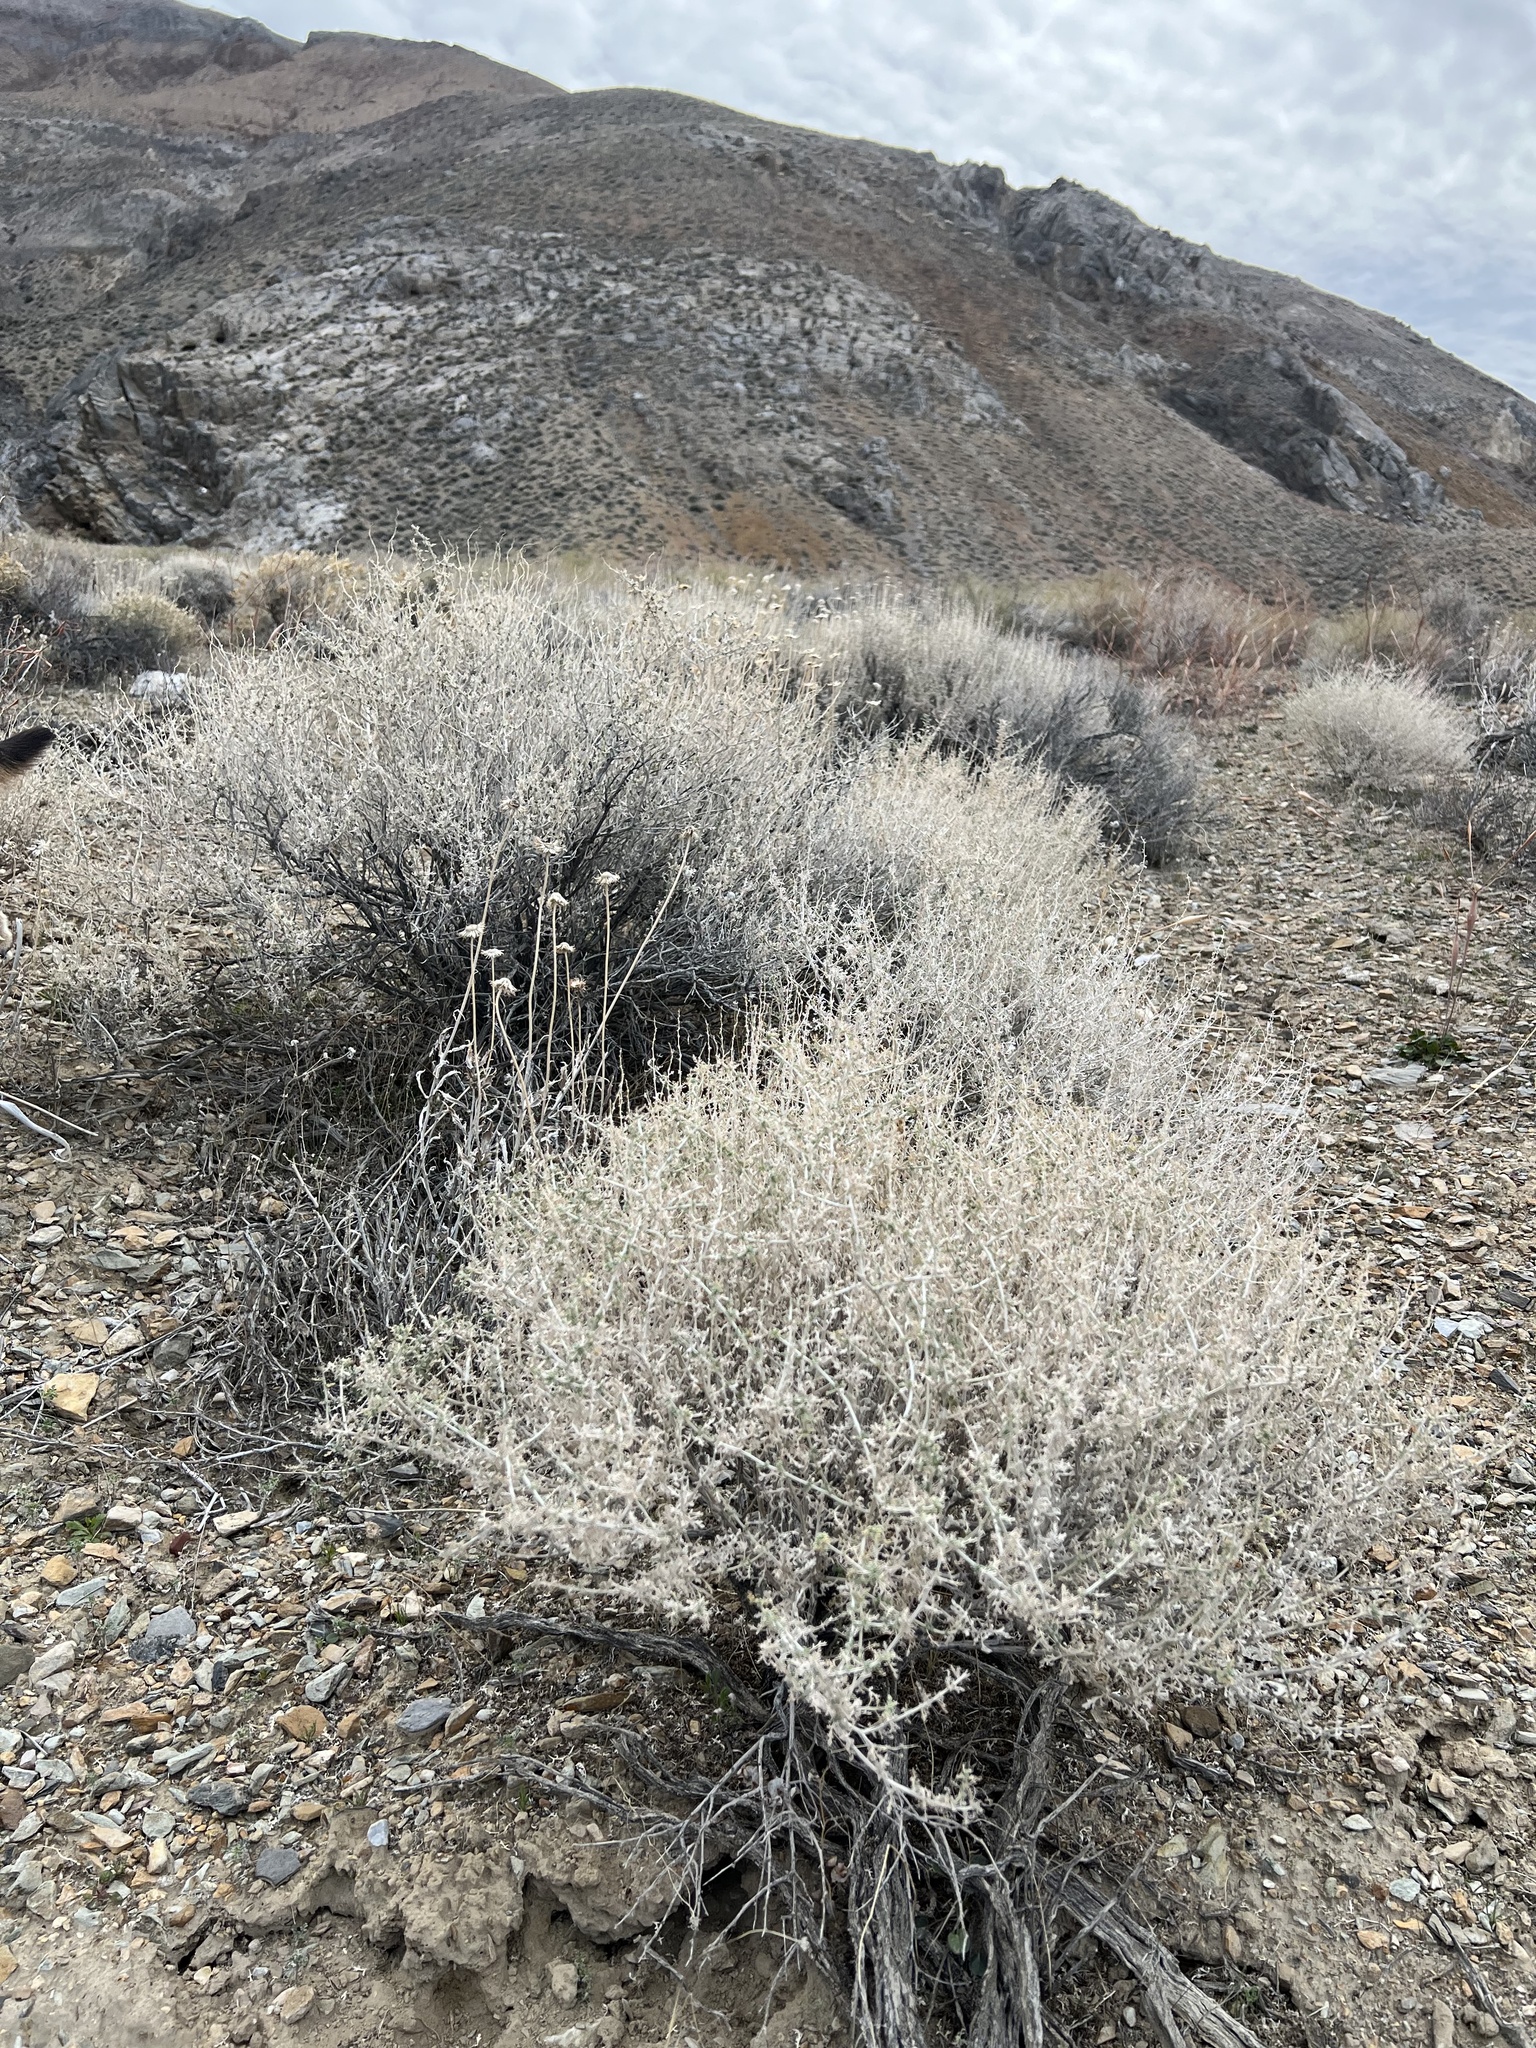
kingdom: Plantae
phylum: Tracheophyta
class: Magnoliopsida
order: Asterales
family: Asteraceae
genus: Ambrosia
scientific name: Ambrosia dumosa
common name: Bur-sage
